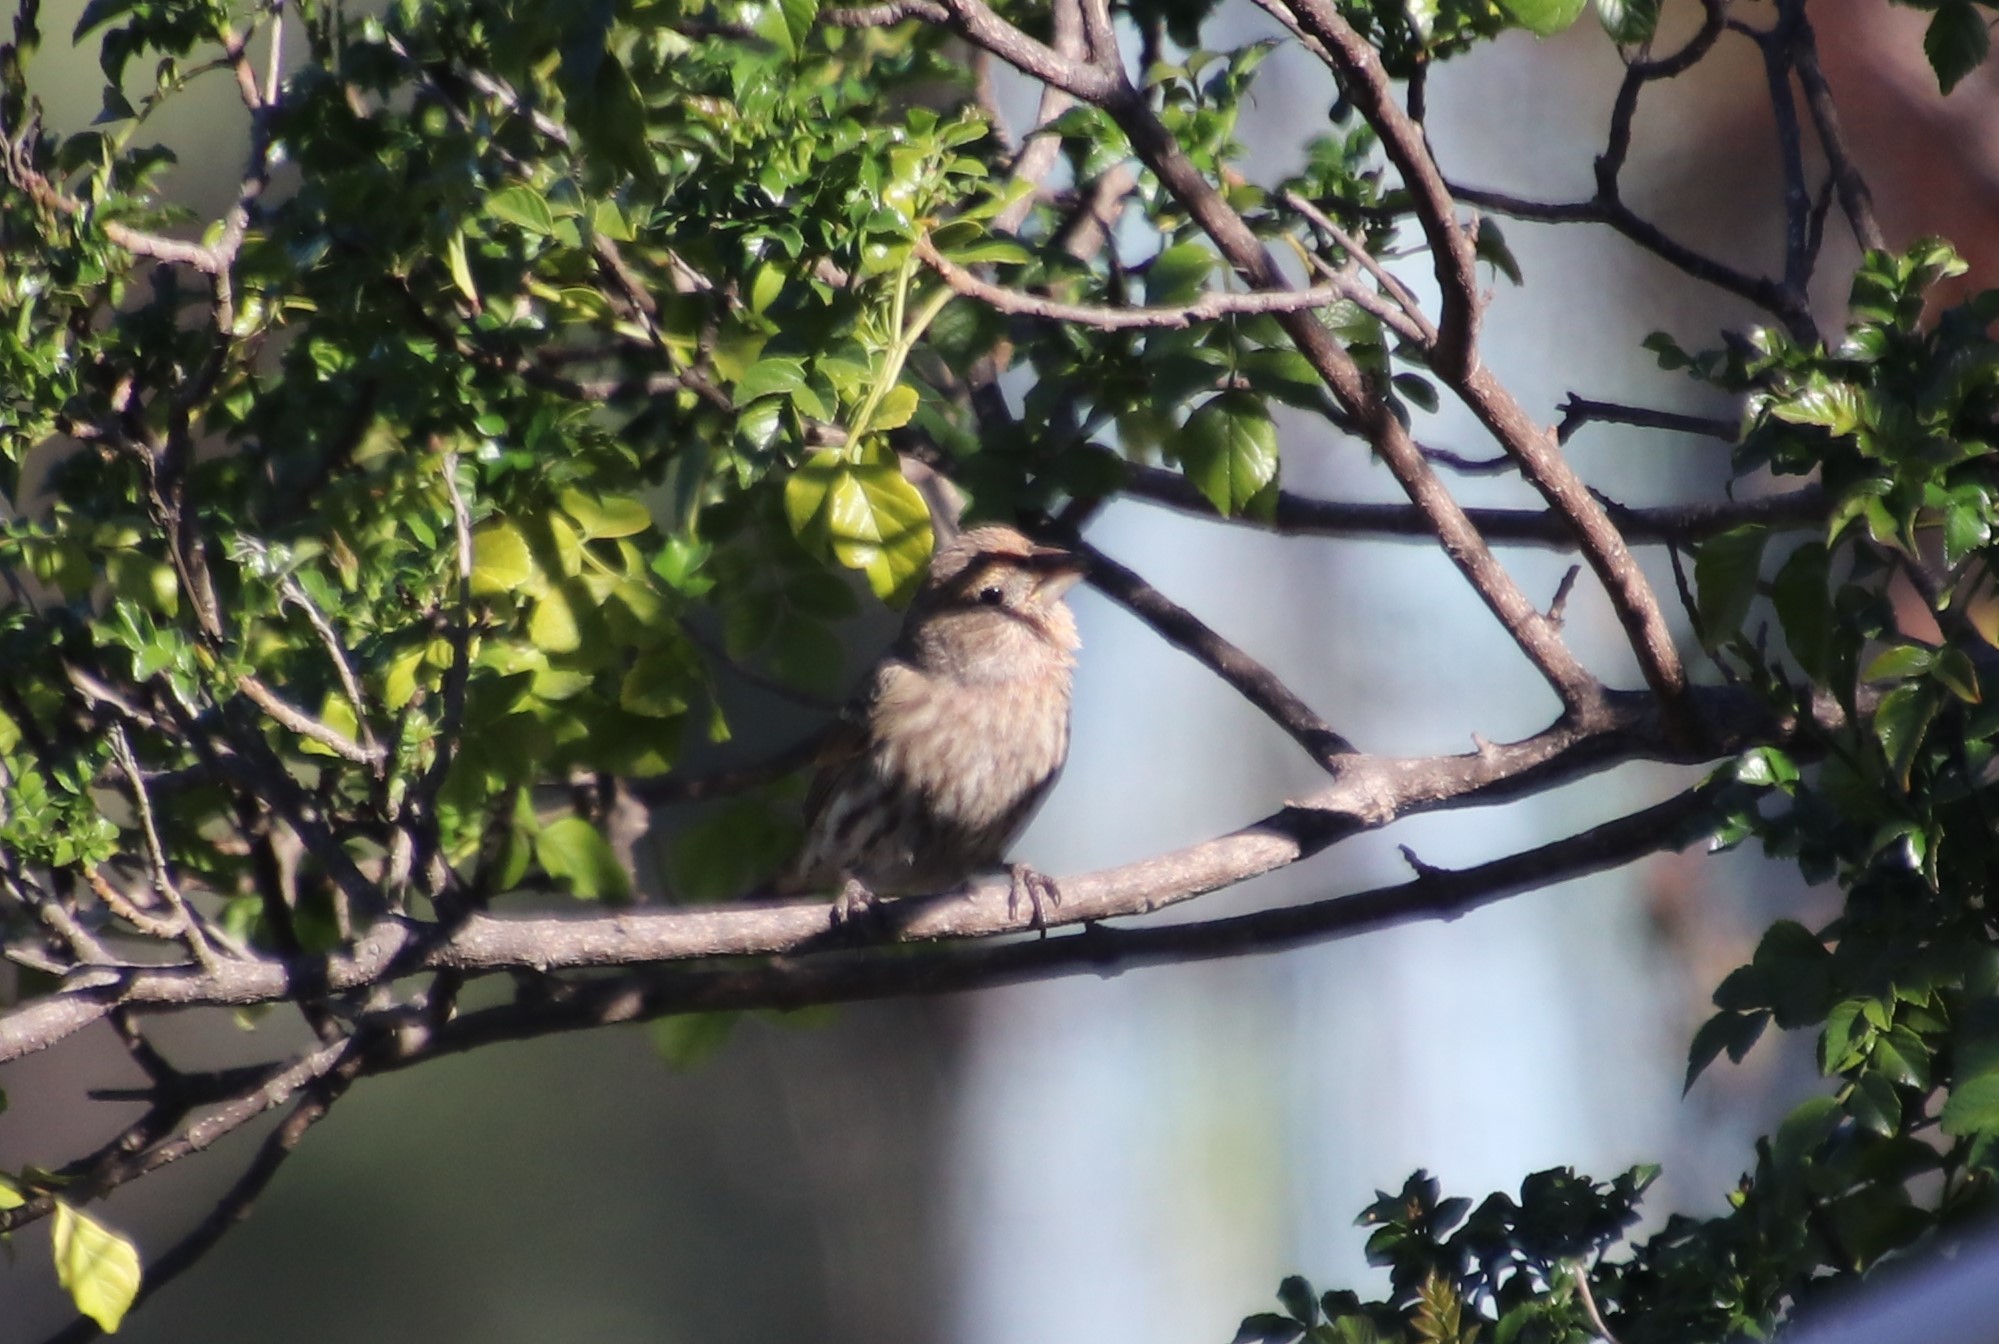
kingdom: Animalia
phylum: Chordata
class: Aves
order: Passeriformes
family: Fringillidae
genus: Haemorhous
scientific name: Haemorhous mexicanus
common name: House finch
